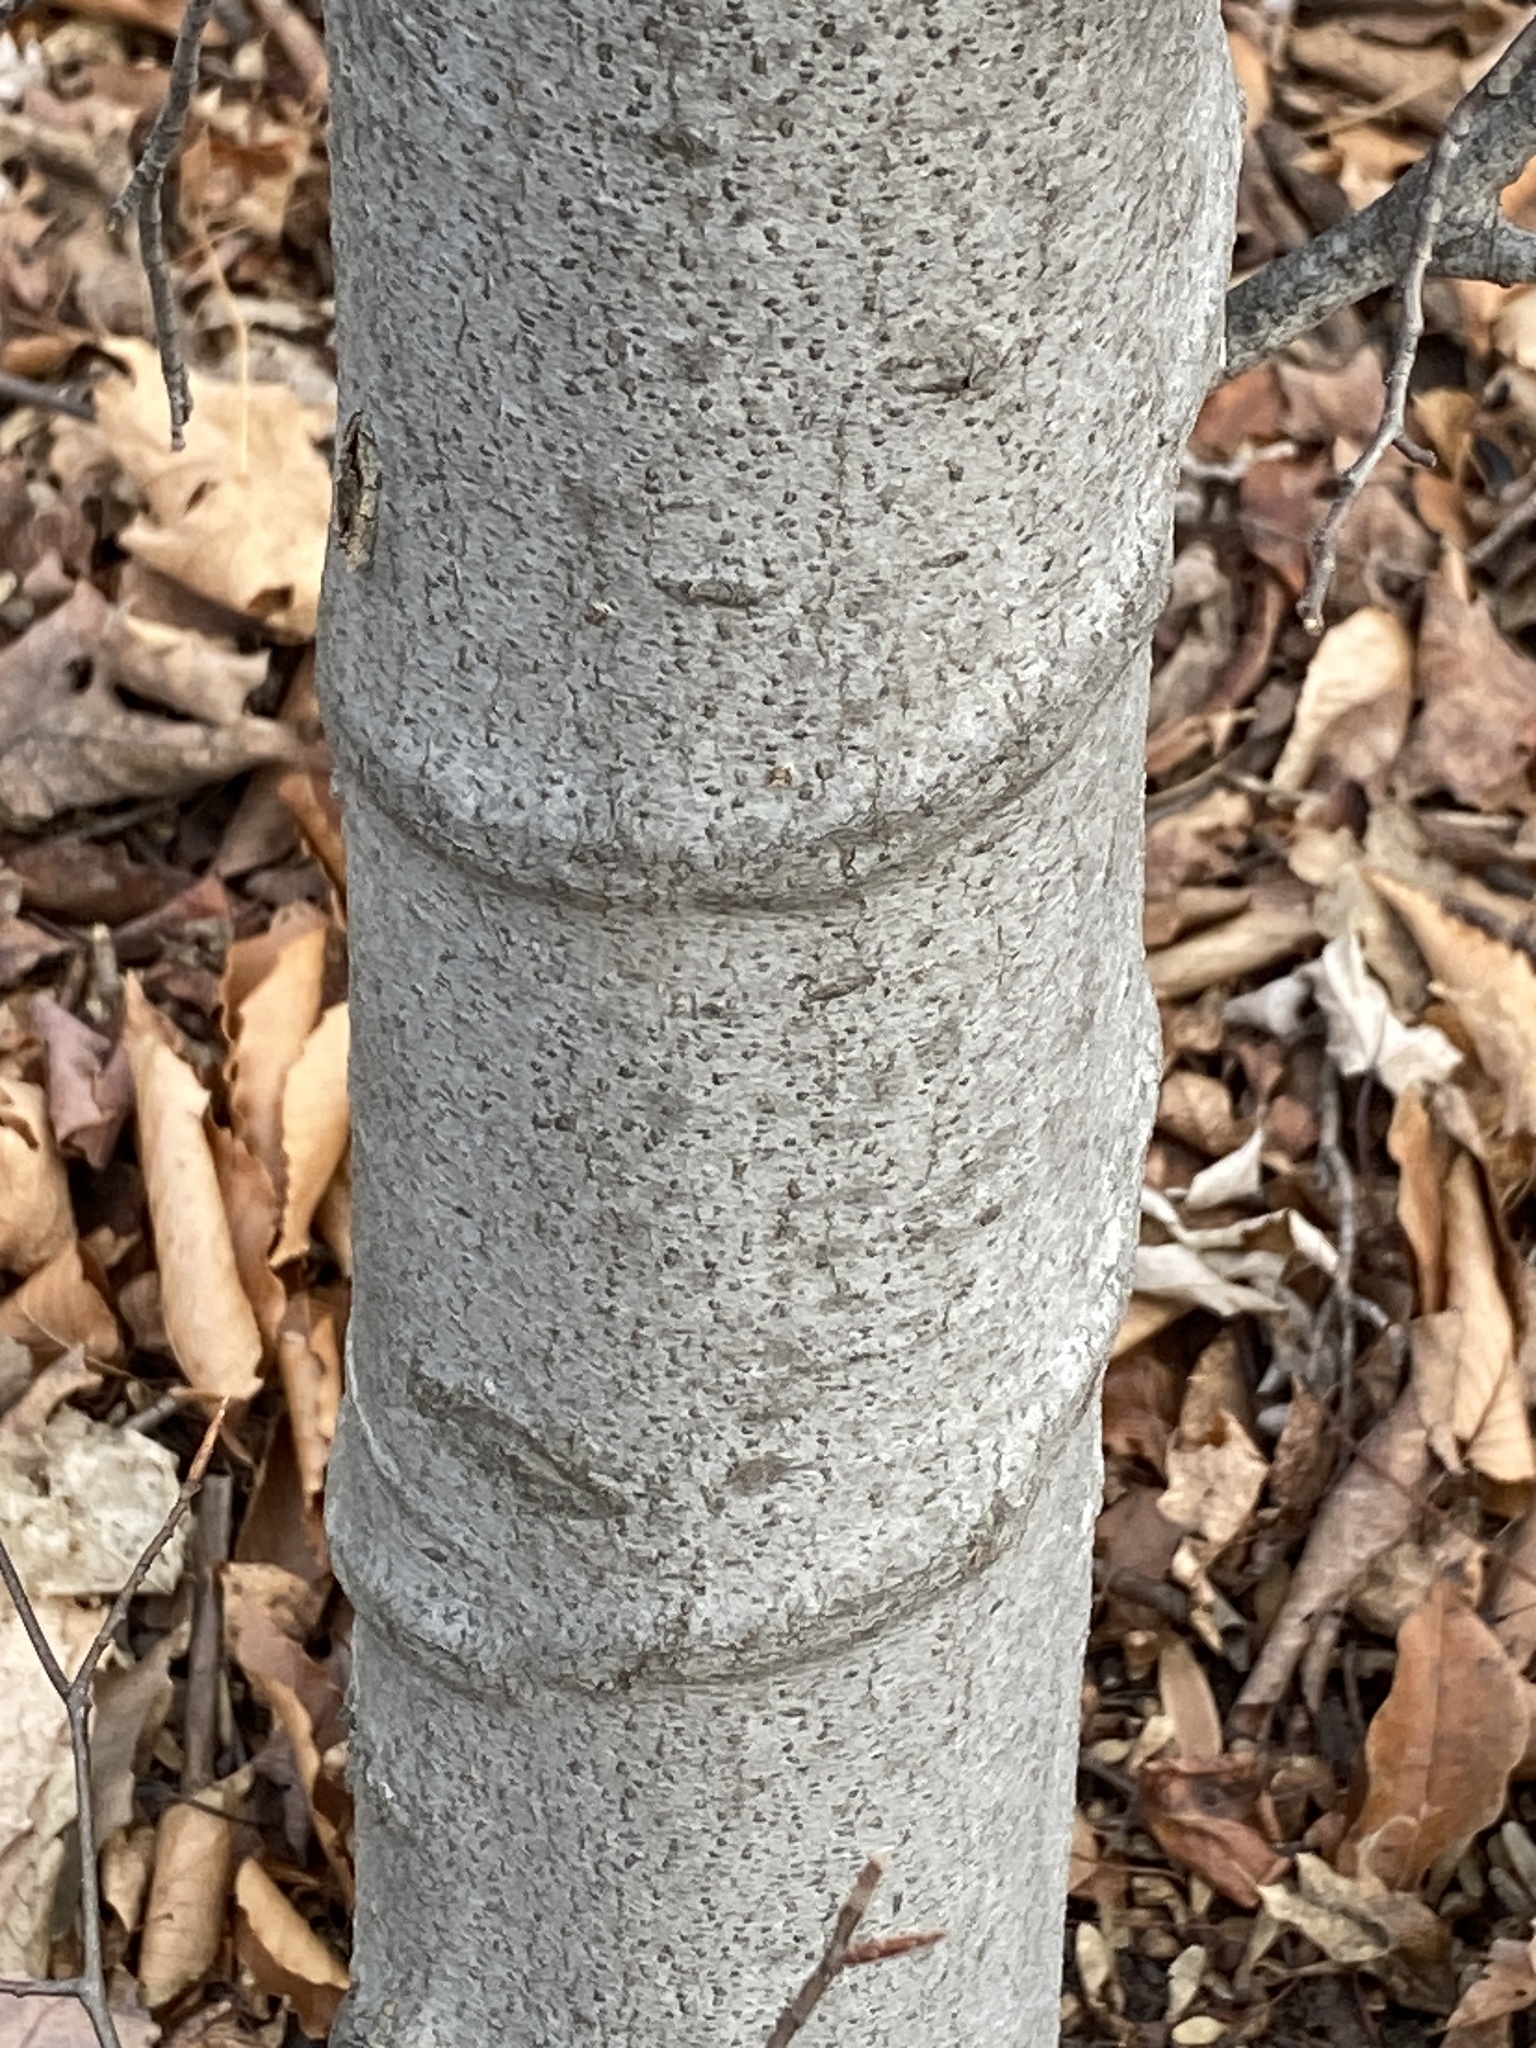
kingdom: Plantae
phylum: Tracheophyta
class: Magnoliopsida
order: Fagales
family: Fagaceae
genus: Fagus
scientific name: Fagus grandifolia
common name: American beech
